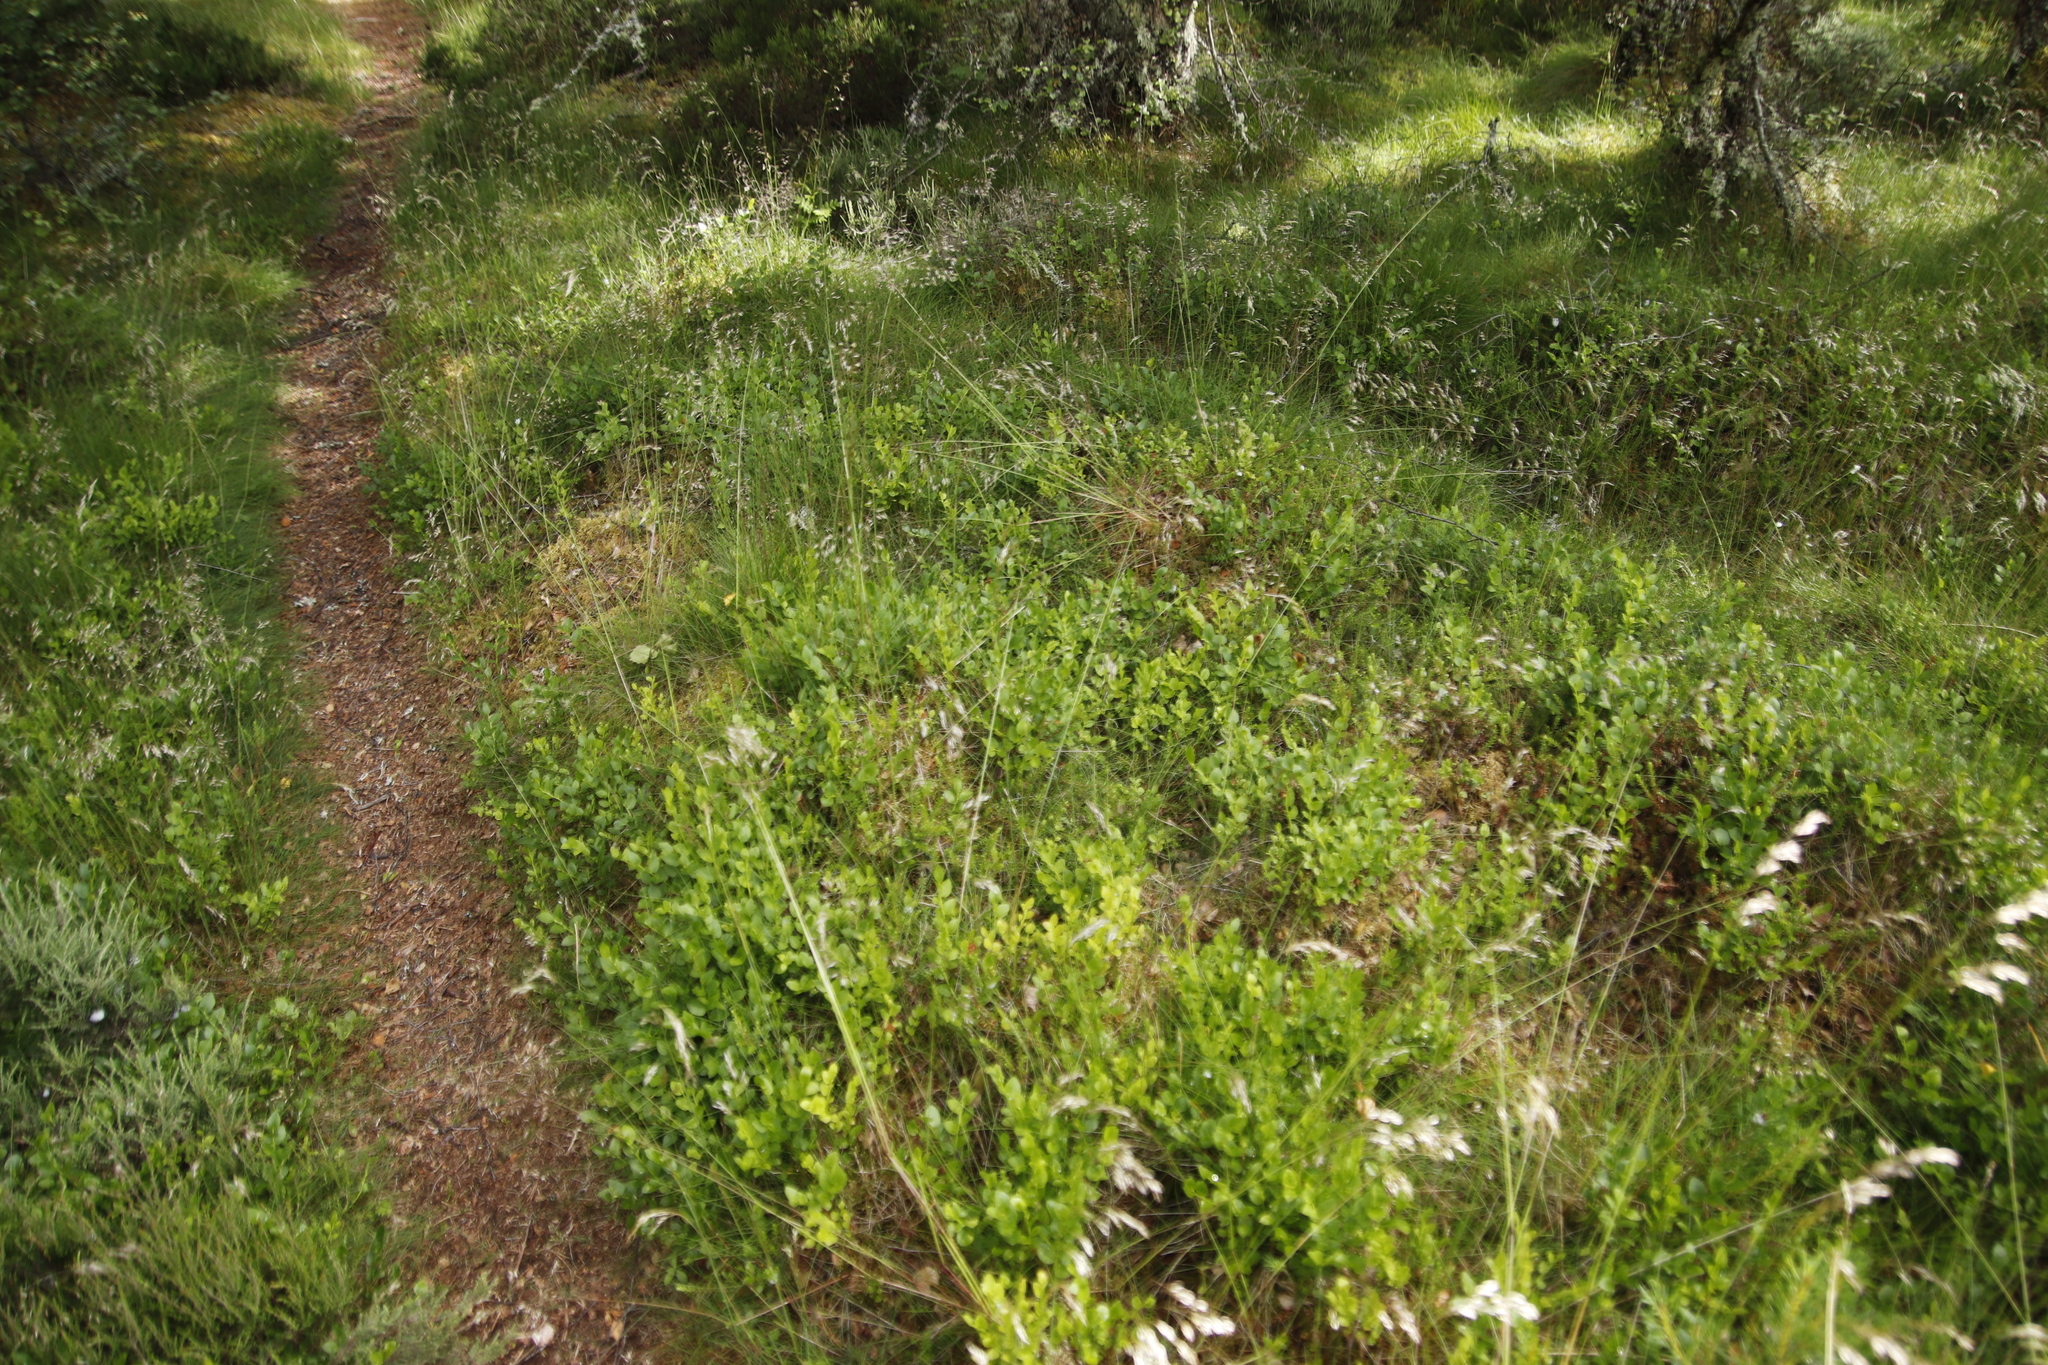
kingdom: Plantae
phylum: Tracheophyta
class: Magnoliopsida
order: Ericales
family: Ericaceae
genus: Vaccinium
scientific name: Vaccinium myrtillus
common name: Bilberry
